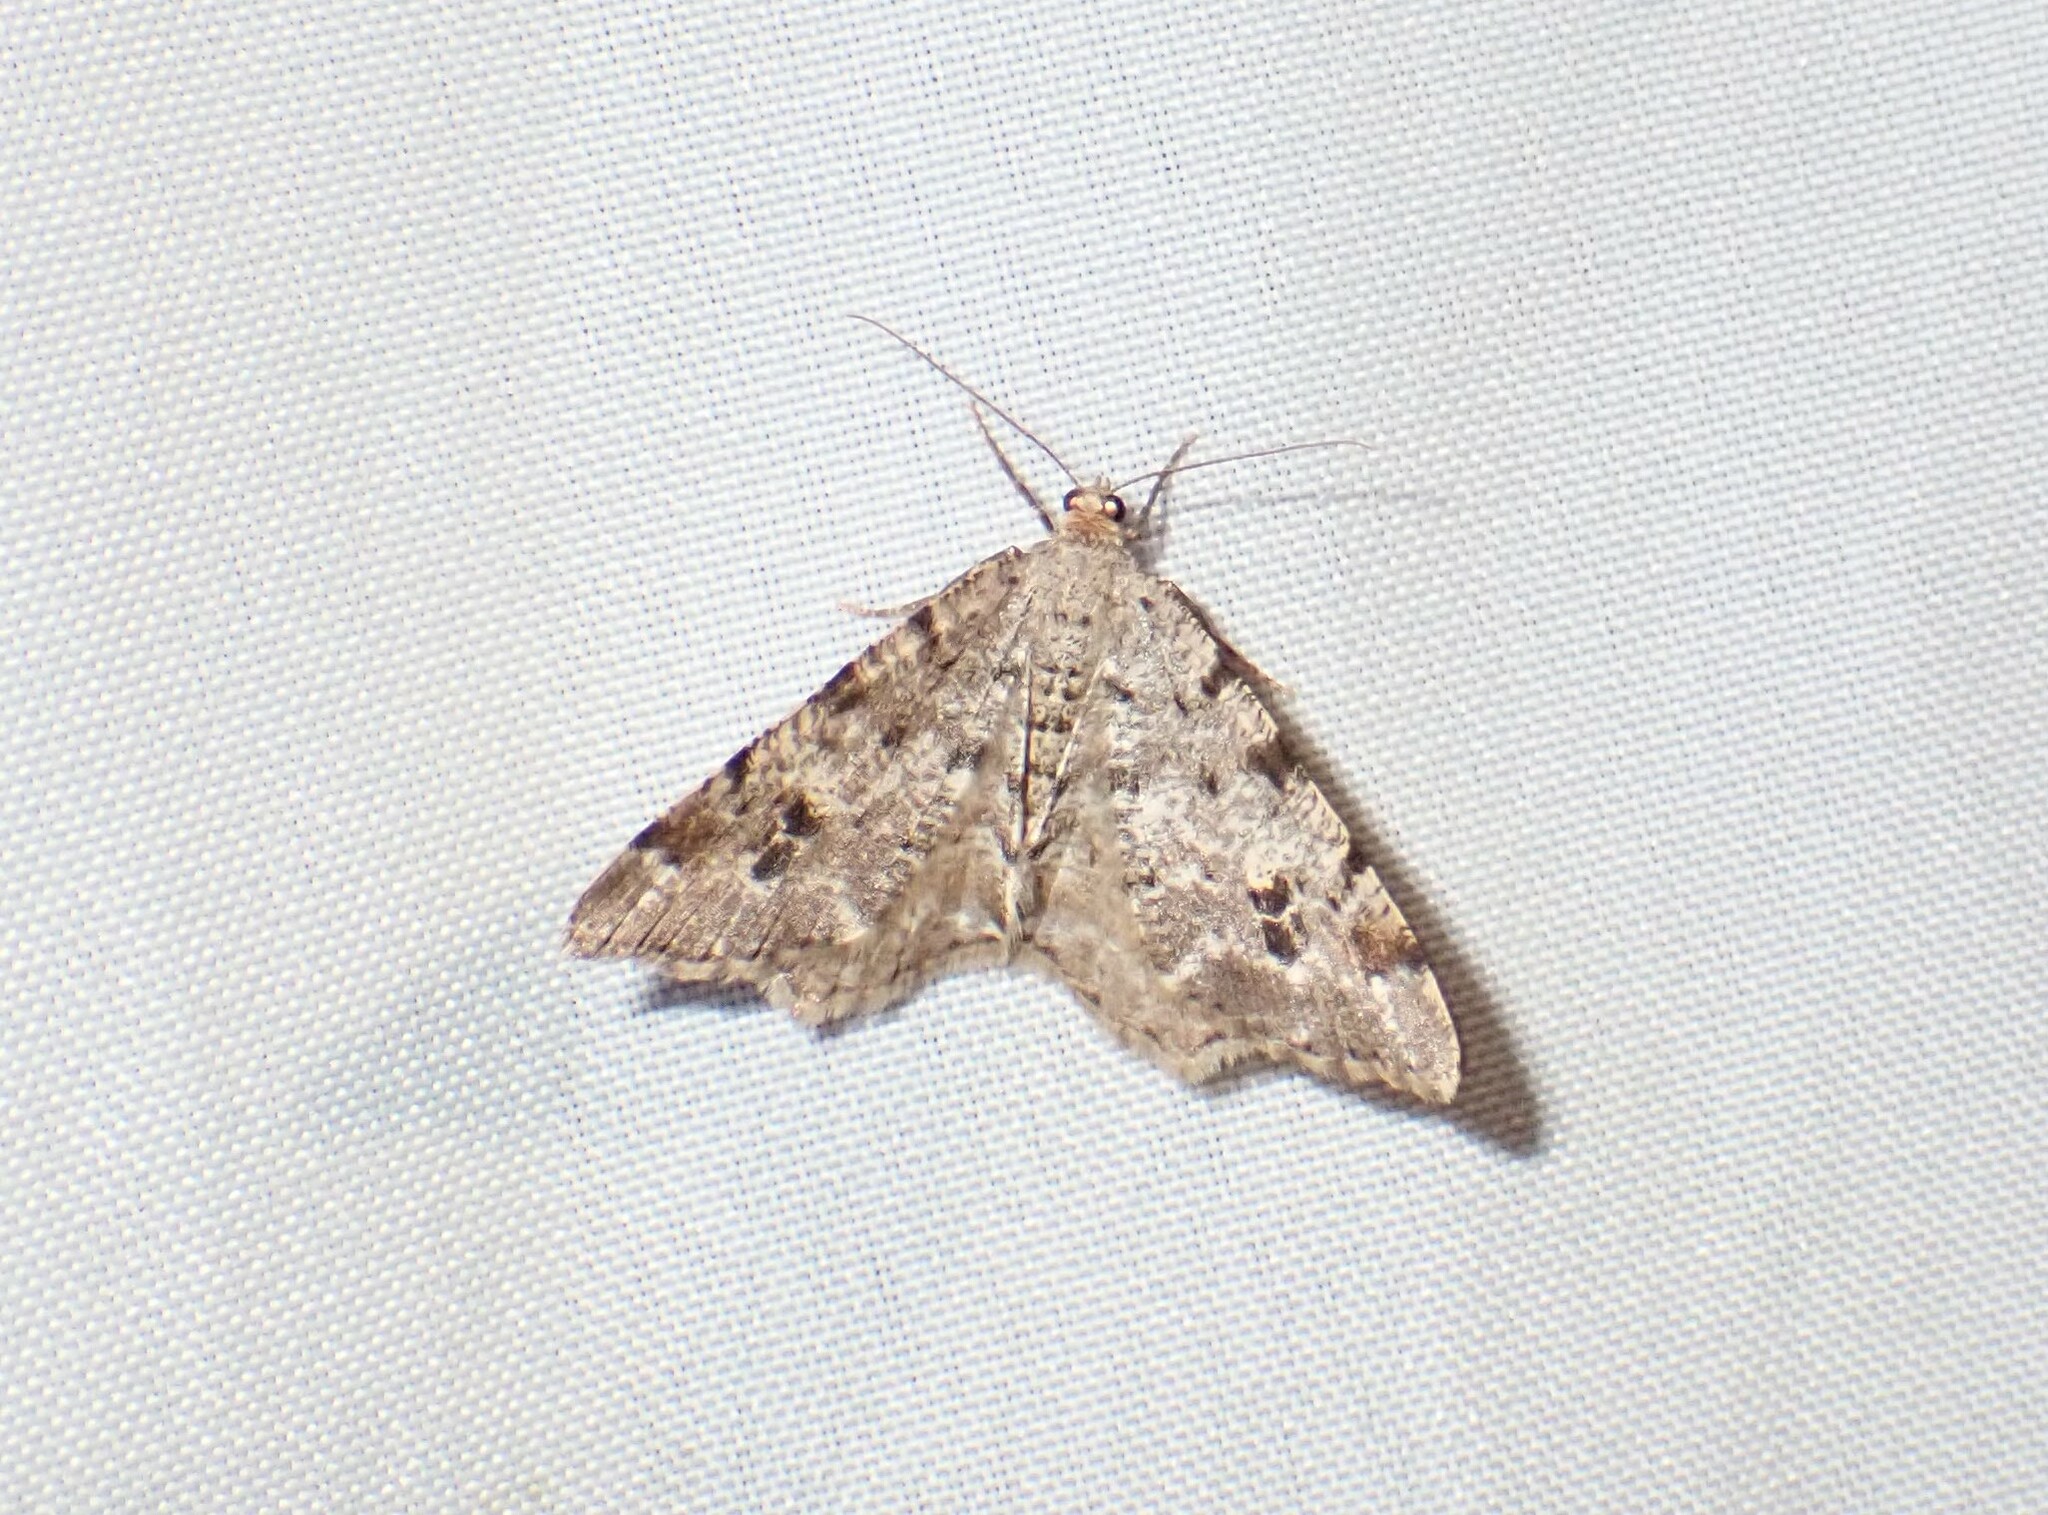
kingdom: Animalia
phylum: Arthropoda
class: Insecta
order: Lepidoptera
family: Geometridae
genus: Macaria
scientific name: Macaria signaria
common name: Dusky peacock
